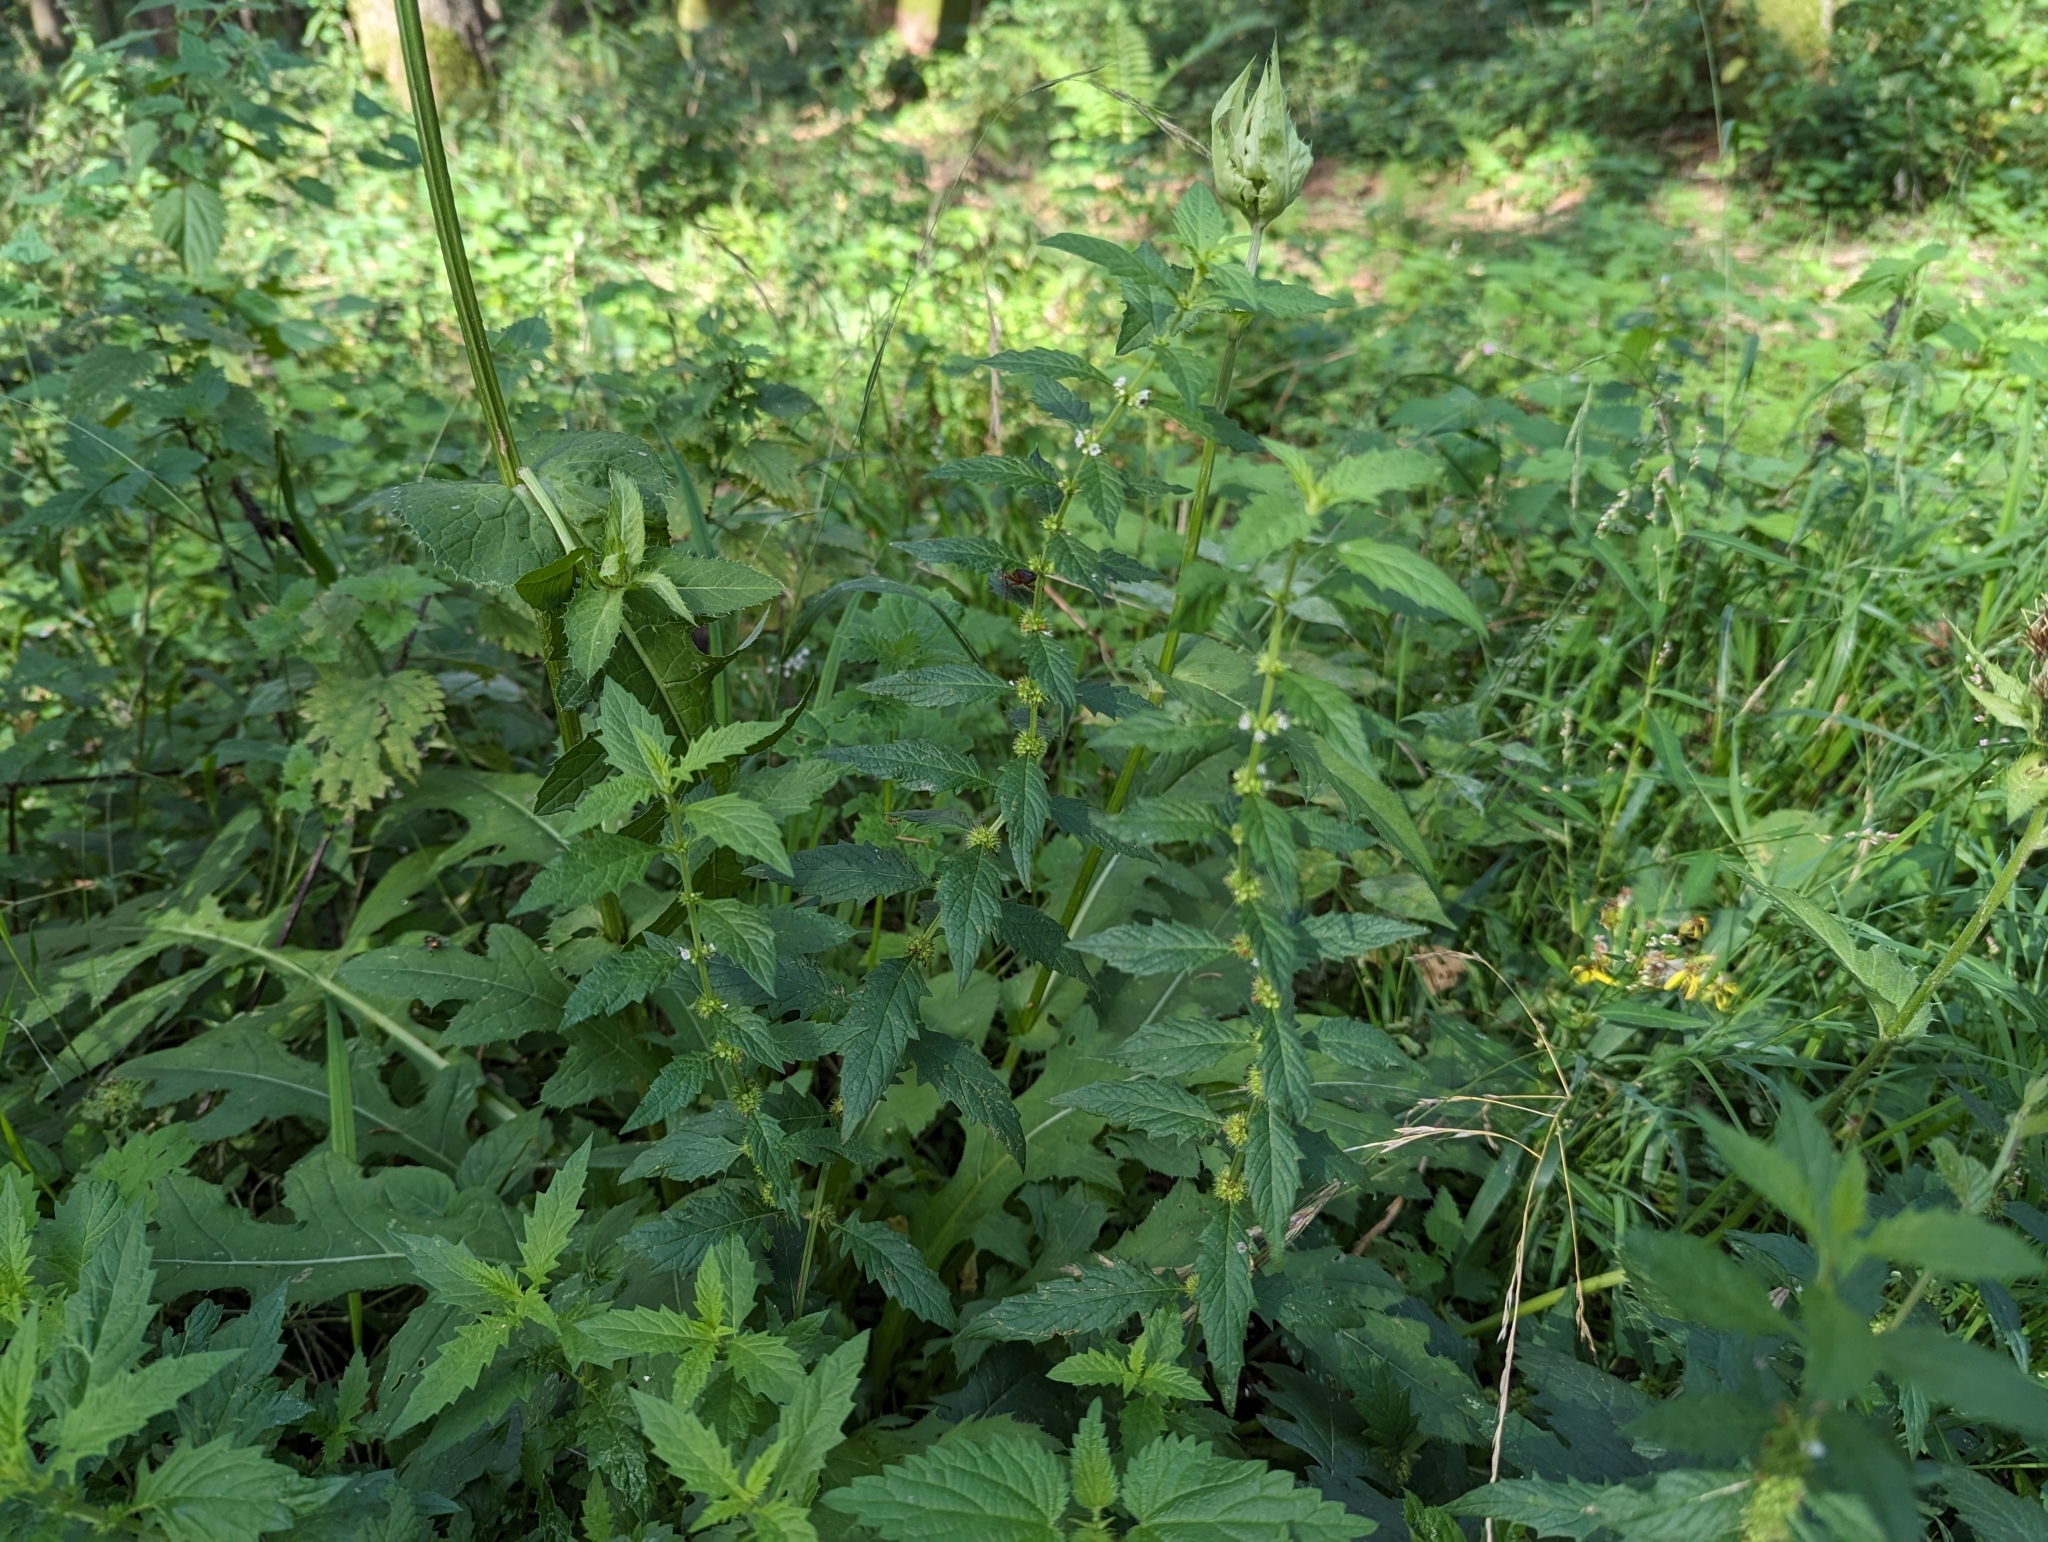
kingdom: Plantae
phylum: Tracheophyta
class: Magnoliopsida
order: Lamiales
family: Lamiaceae
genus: Lycopus
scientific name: Lycopus europaeus
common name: European bugleweed
